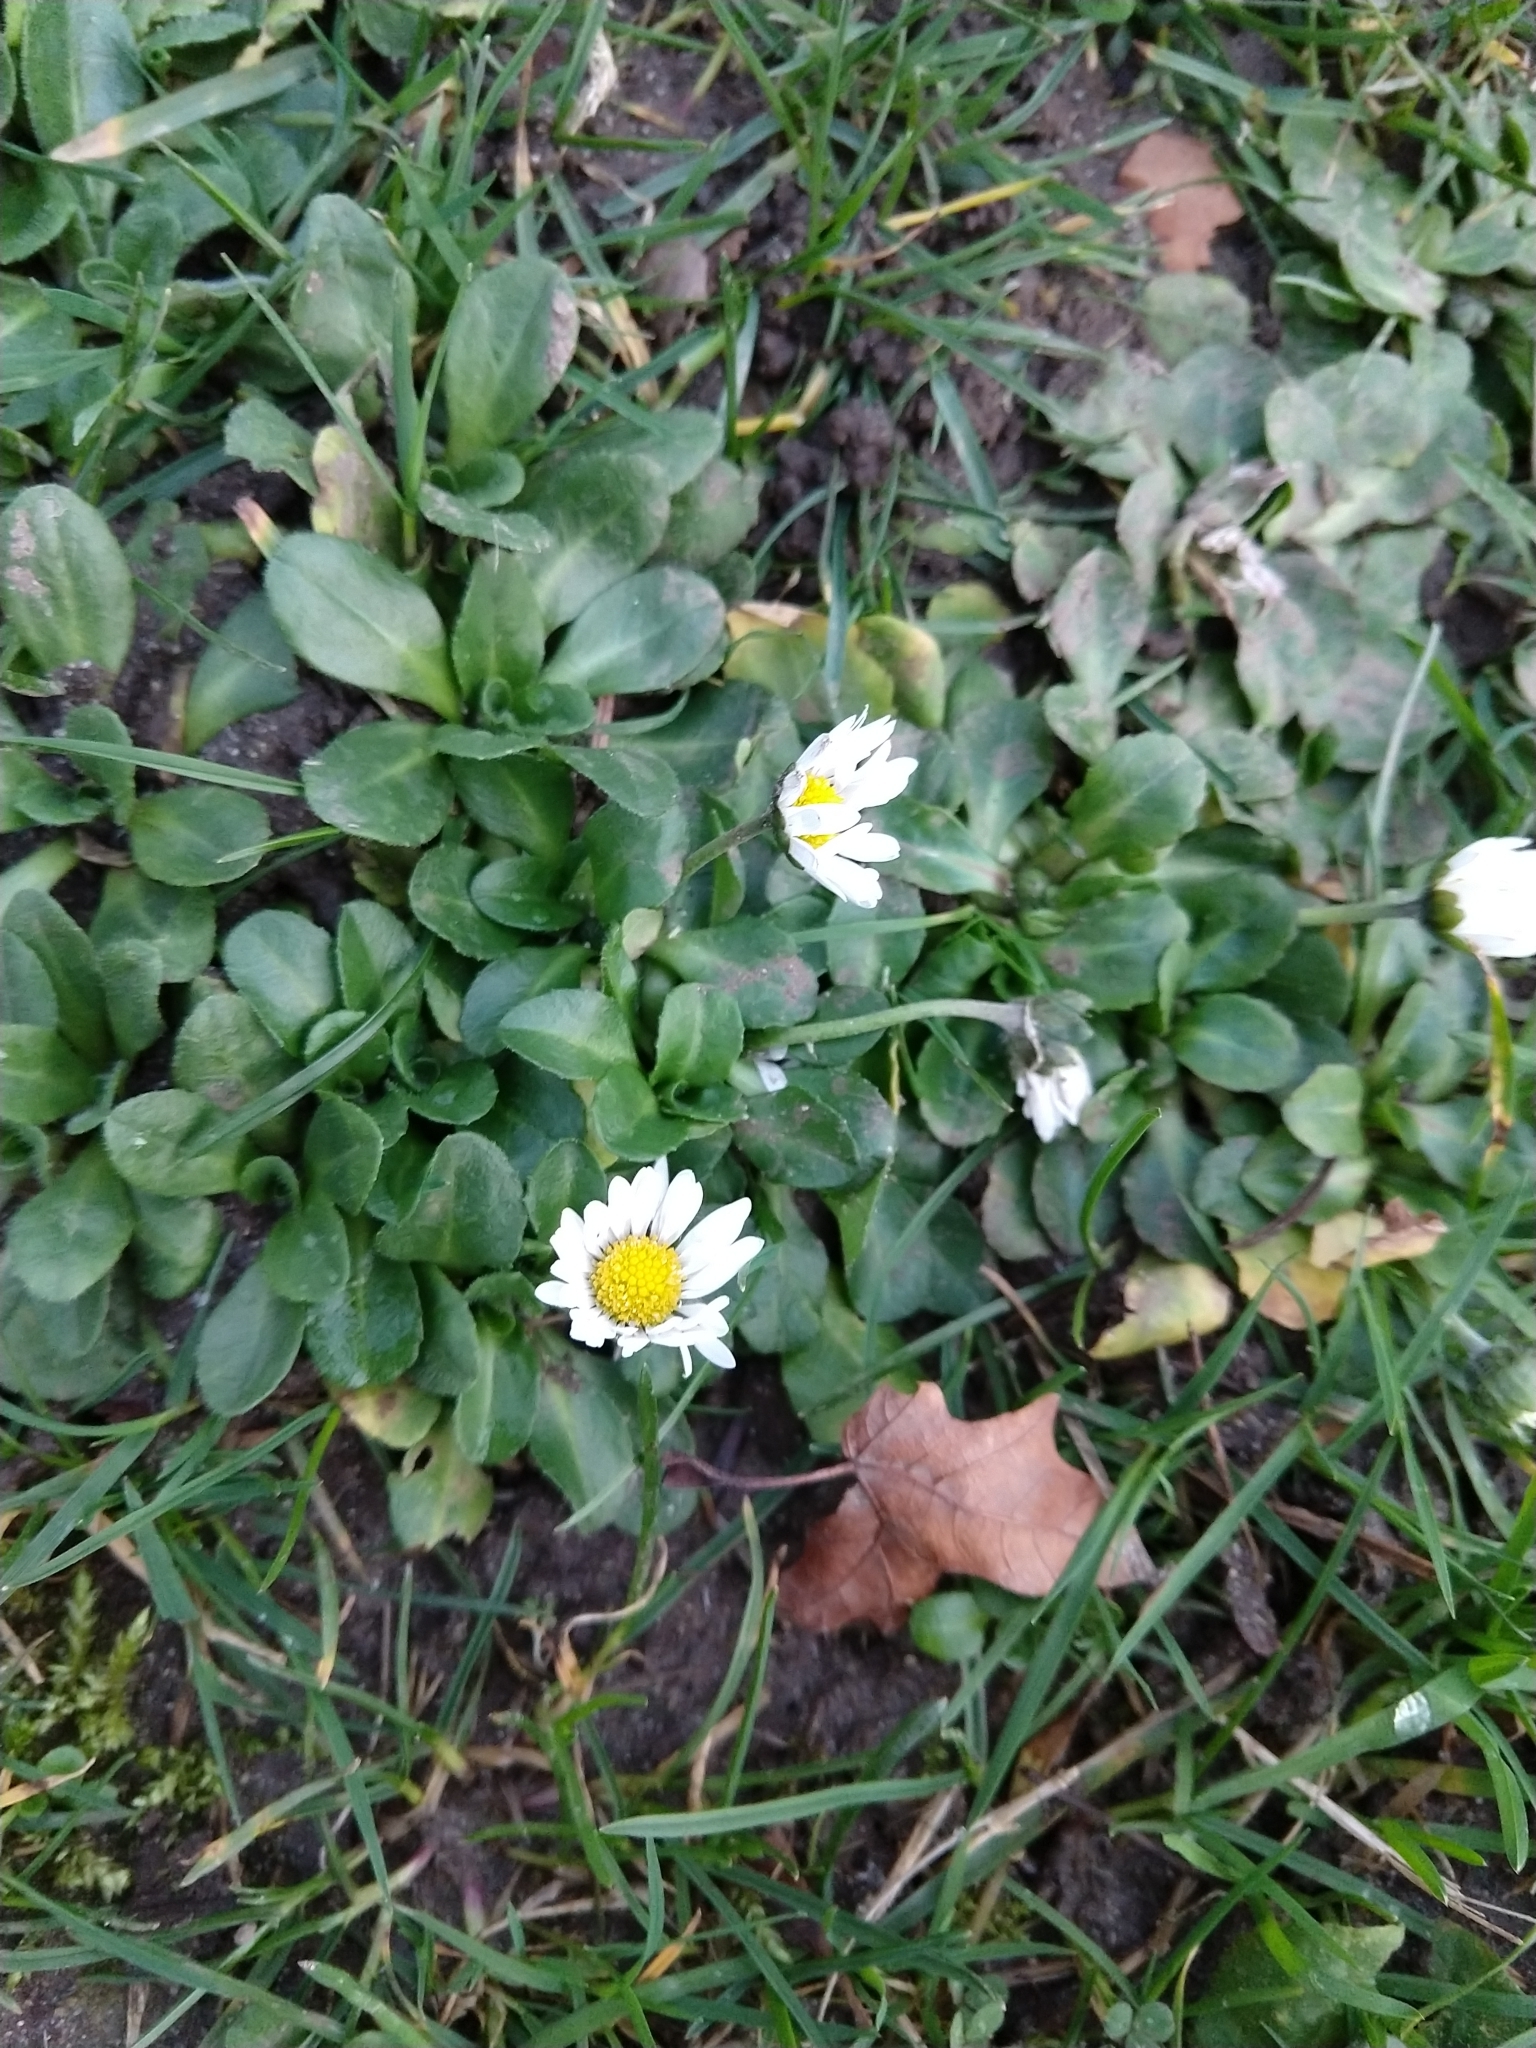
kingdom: Plantae
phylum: Tracheophyta
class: Magnoliopsida
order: Asterales
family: Asteraceae
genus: Bellis
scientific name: Bellis perennis
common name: Lawndaisy
